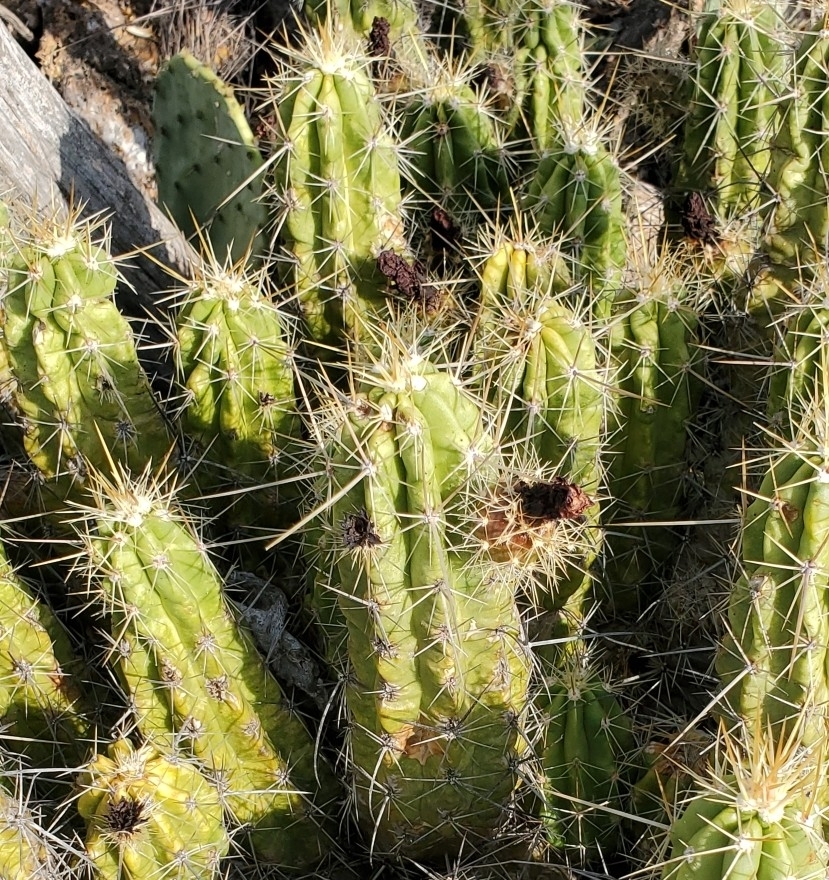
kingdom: Plantae
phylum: Tracheophyta
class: Magnoliopsida
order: Caryophyllales
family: Cactaceae
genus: Echinocereus
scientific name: Echinocereus enneacanthus
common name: Pitaya
